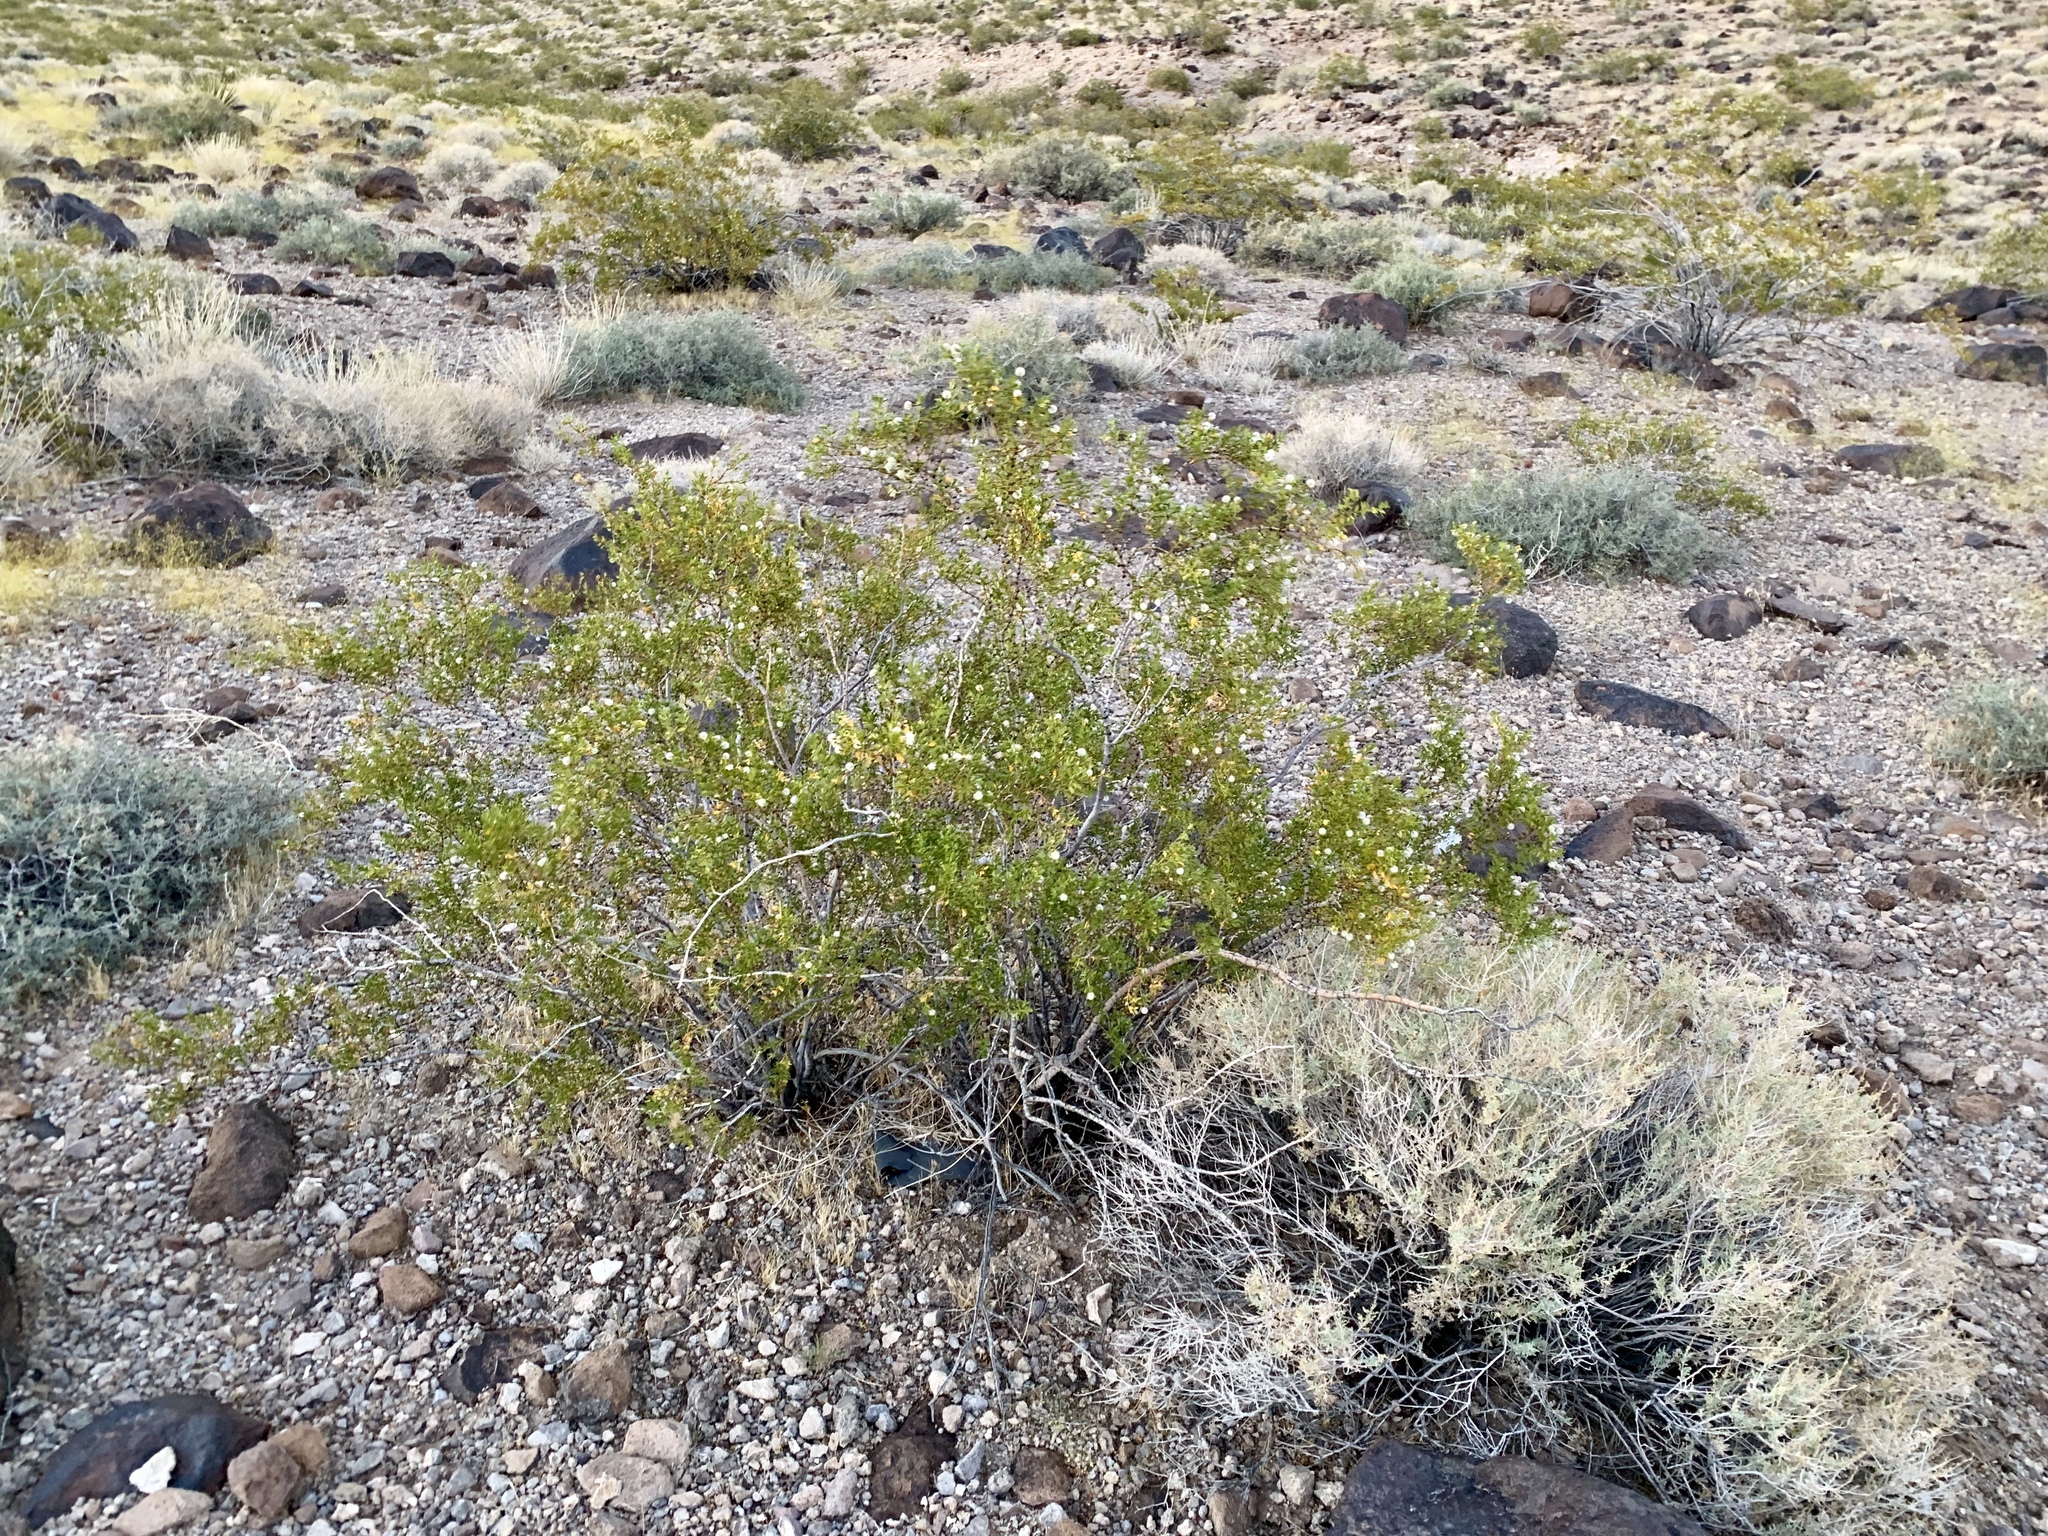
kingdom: Plantae
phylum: Tracheophyta
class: Magnoliopsida
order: Zygophyllales
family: Zygophyllaceae
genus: Larrea
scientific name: Larrea tridentata
